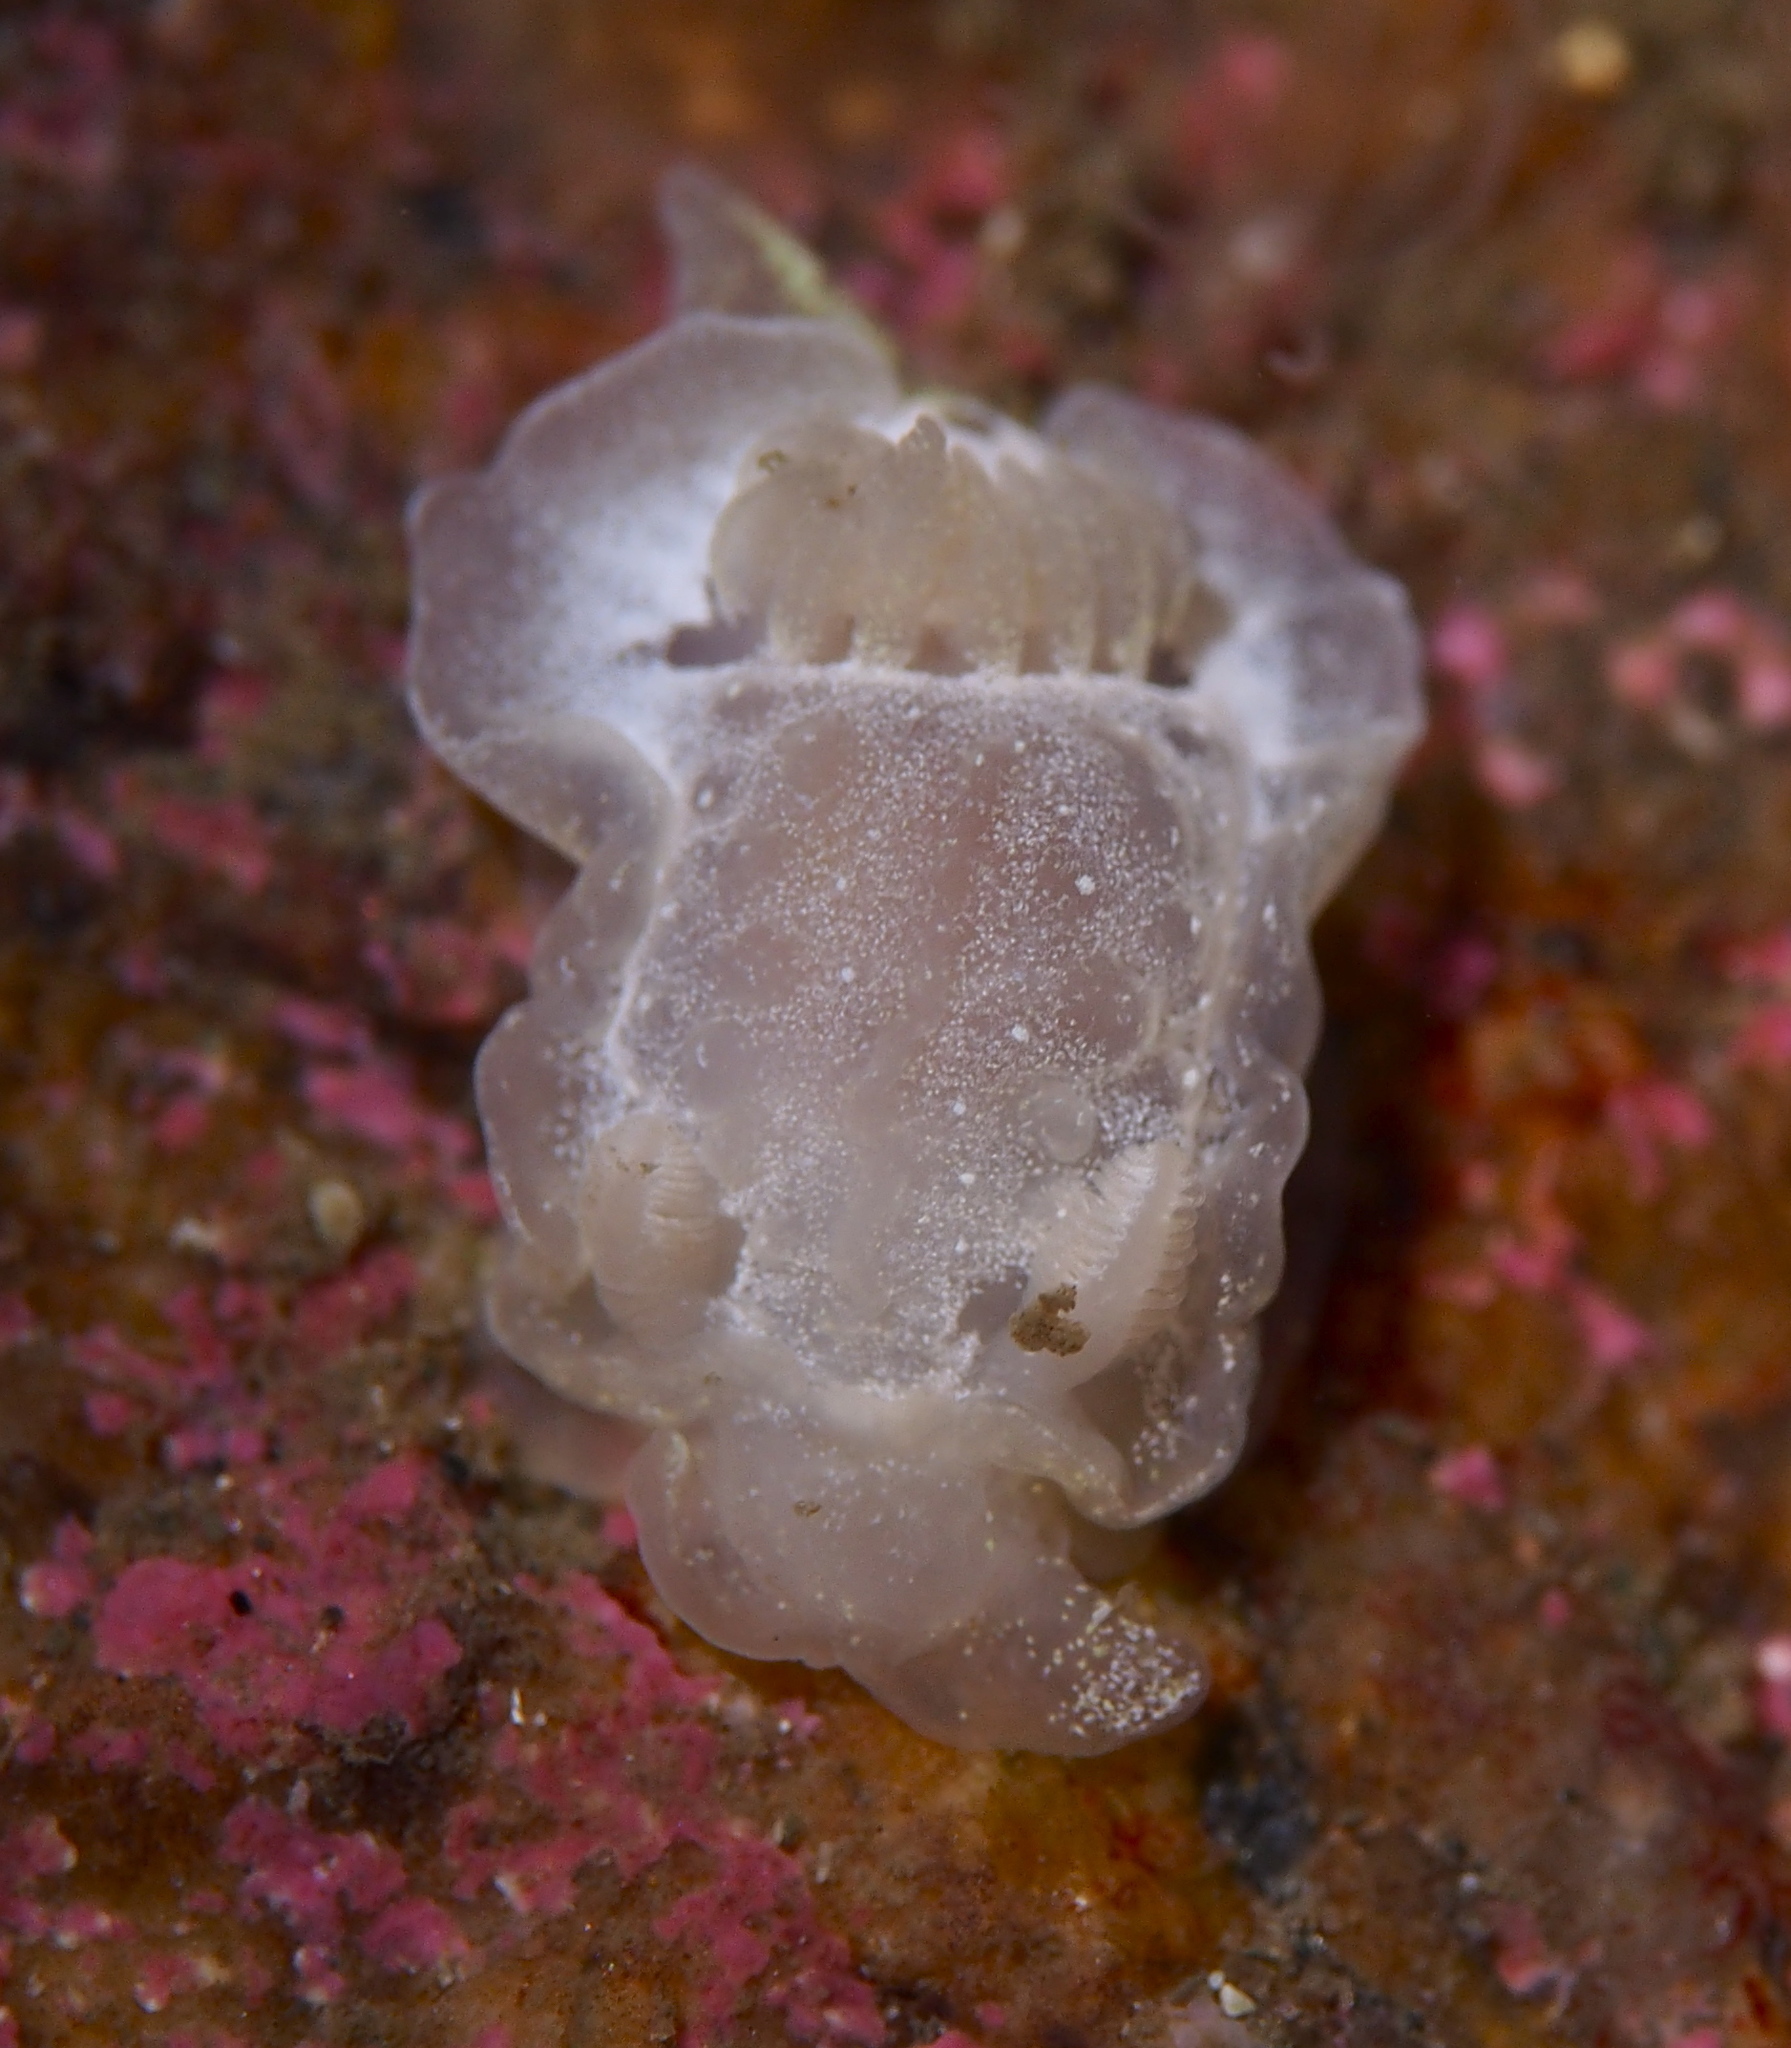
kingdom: Animalia
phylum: Mollusca
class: Gastropoda
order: Nudibranchia
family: Goniodorididae
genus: Okenia
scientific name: Okenia
